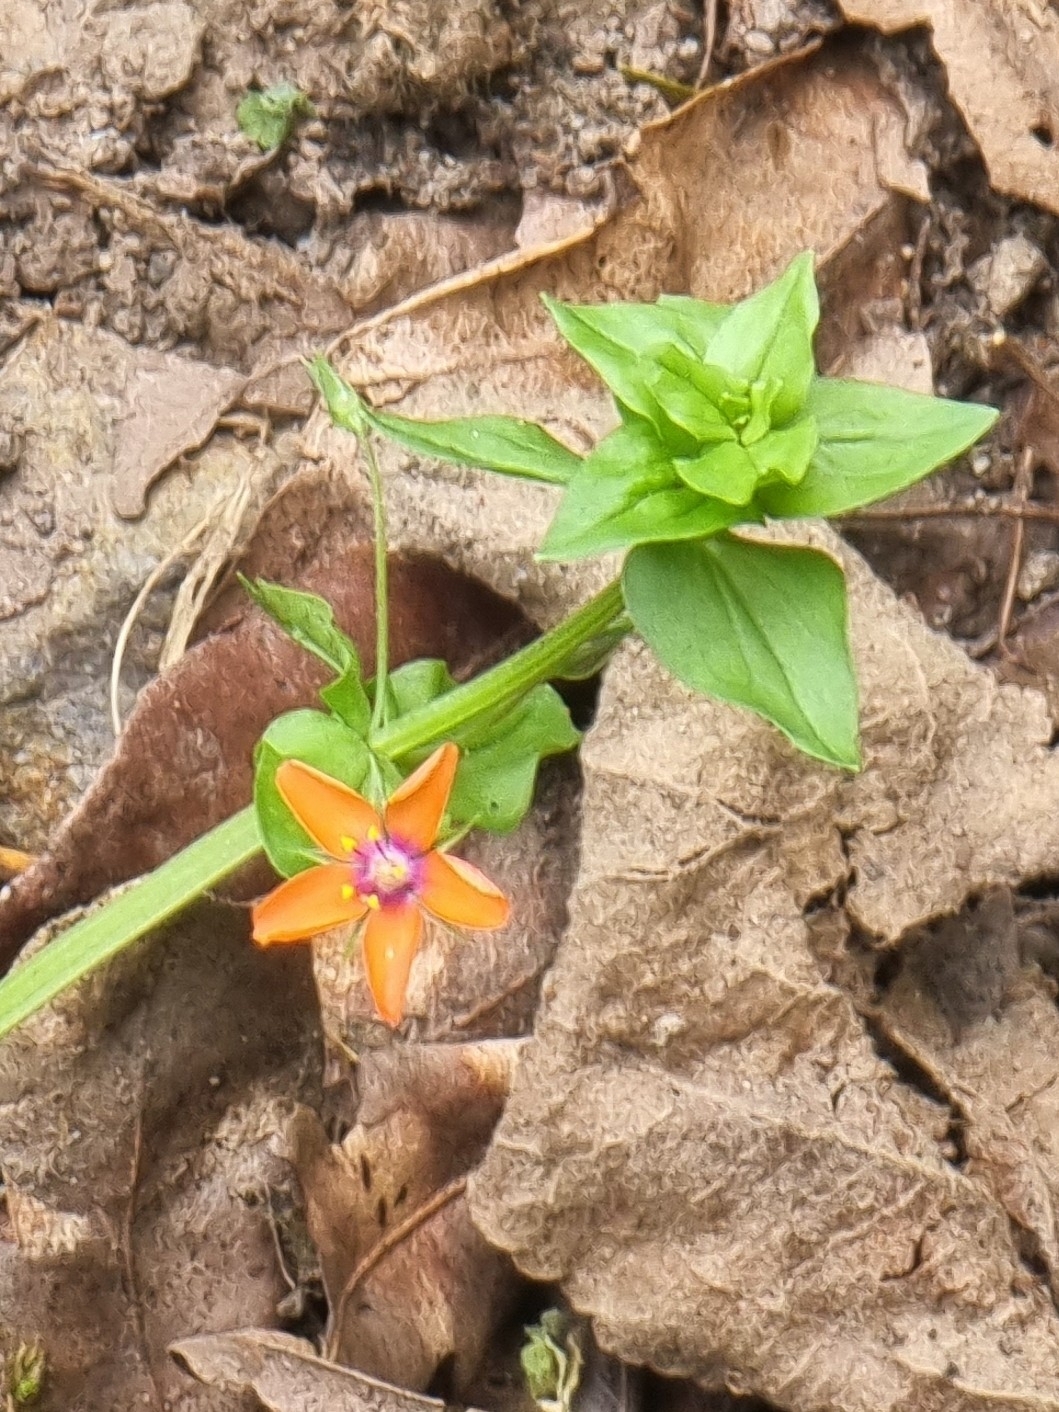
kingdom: Plantae
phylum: Tracheophyta
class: Magnoliopsida
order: Ericales
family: Primulaceae
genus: Lysimachia
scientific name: Lysimachia arvensis
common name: Scarlet pimpernel
